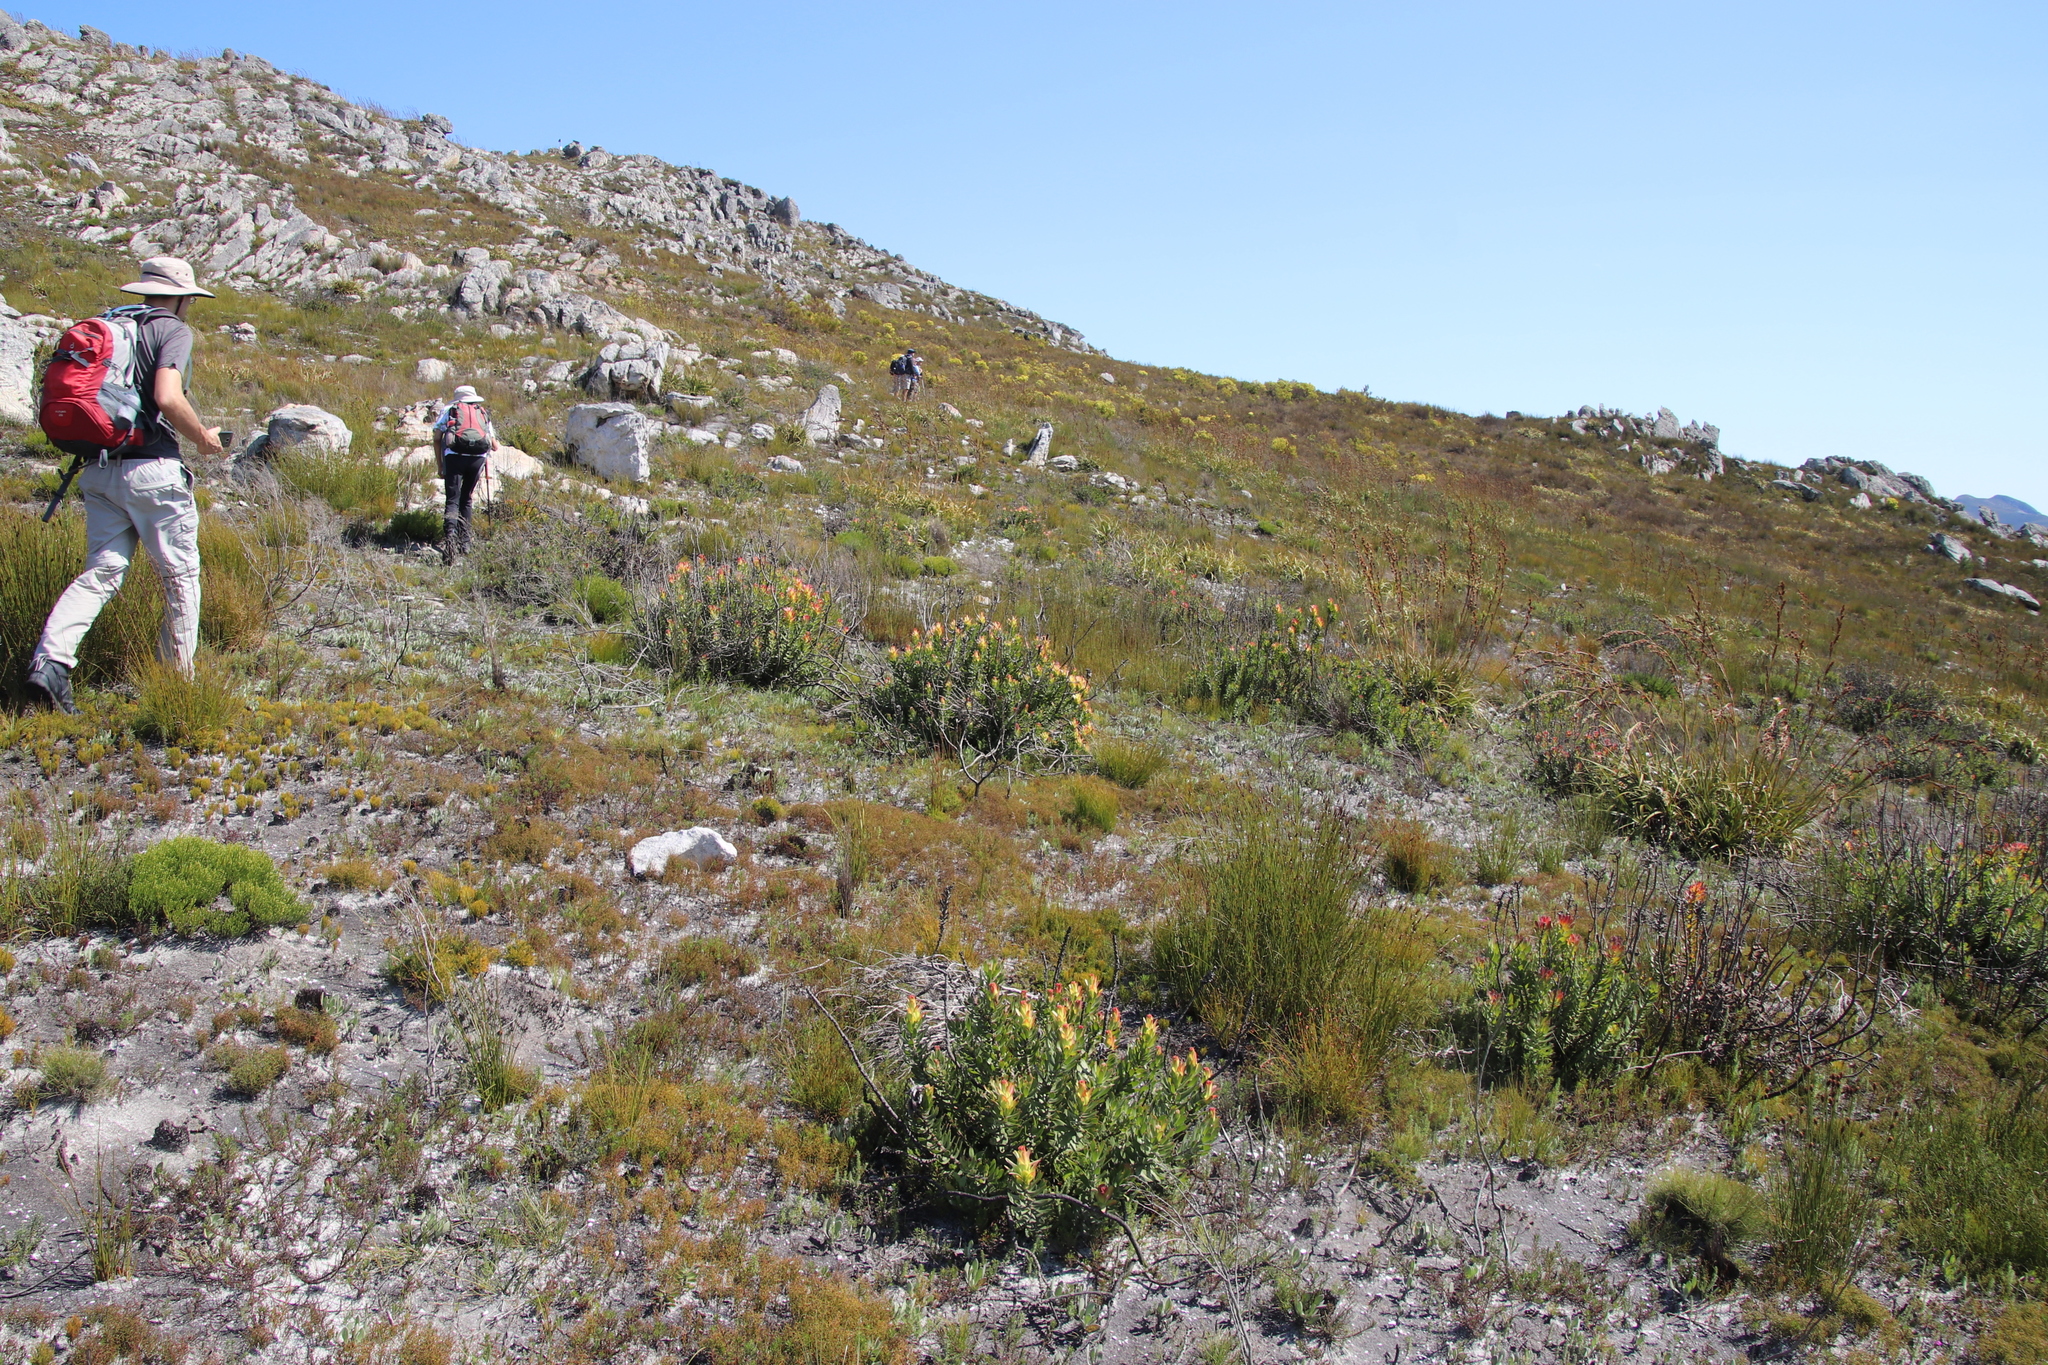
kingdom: Plantae
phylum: Tracheophyta
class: Magnoliopsida
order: Proteales
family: Proteaceae
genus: Mimetes
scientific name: Mimetes cucullatus
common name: Common pagoda
